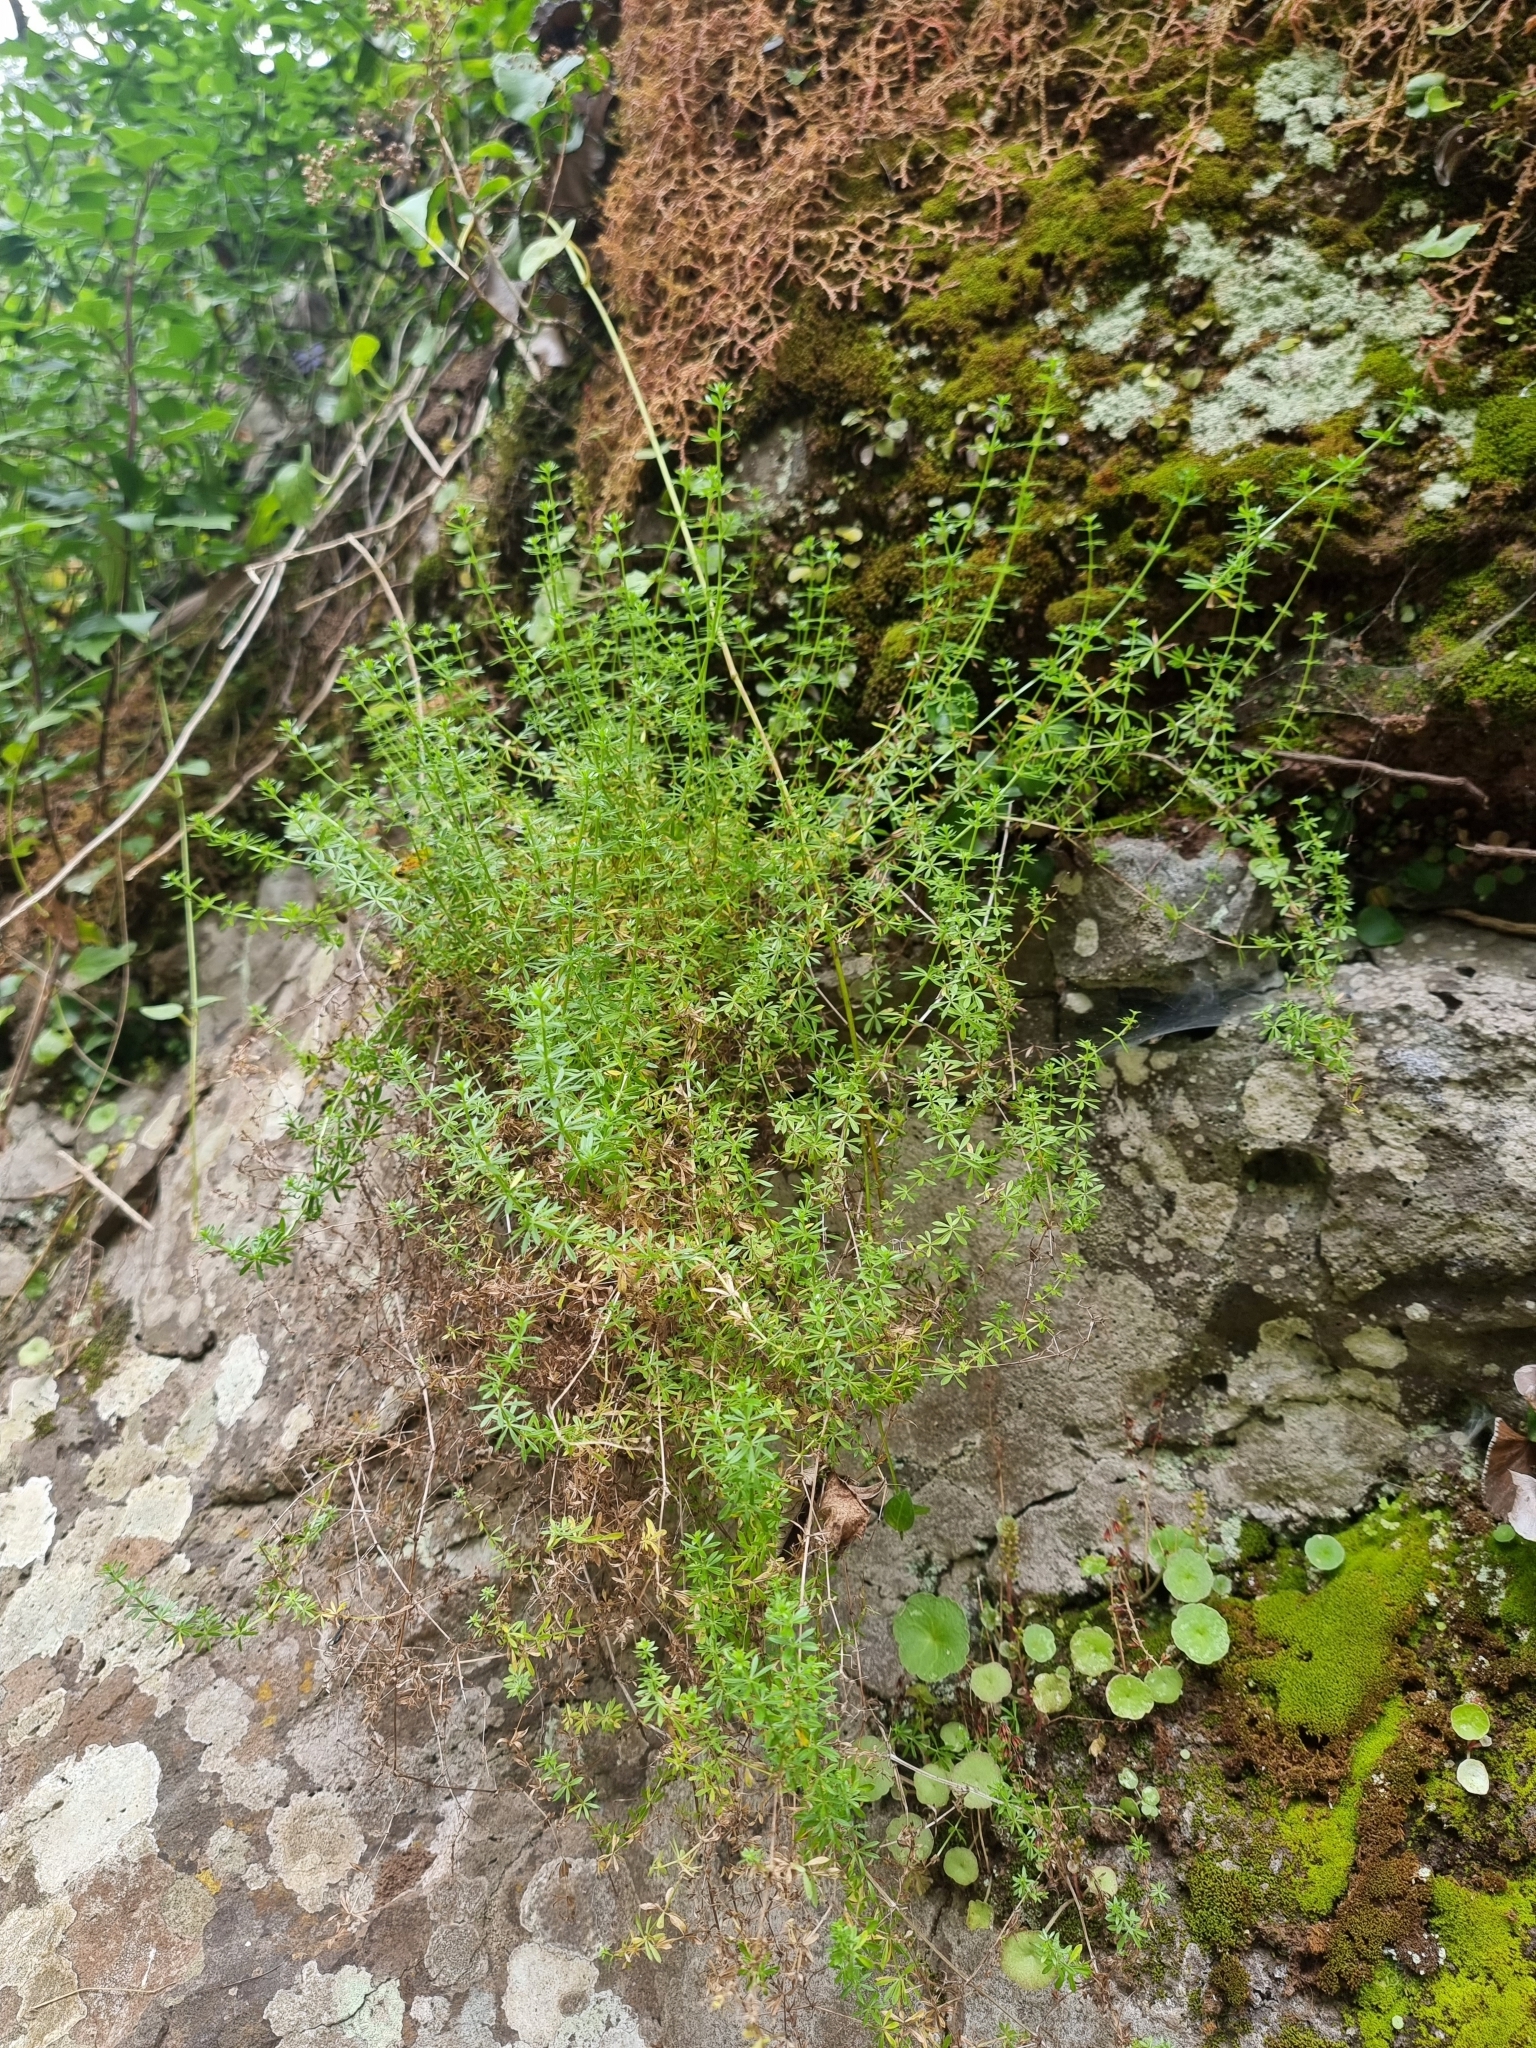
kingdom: Plantae
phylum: Tracheophyta
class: Magnoliopsida
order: Gentianales
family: Rubiaceae
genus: Galium
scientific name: Galium aparine
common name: Cleavers
